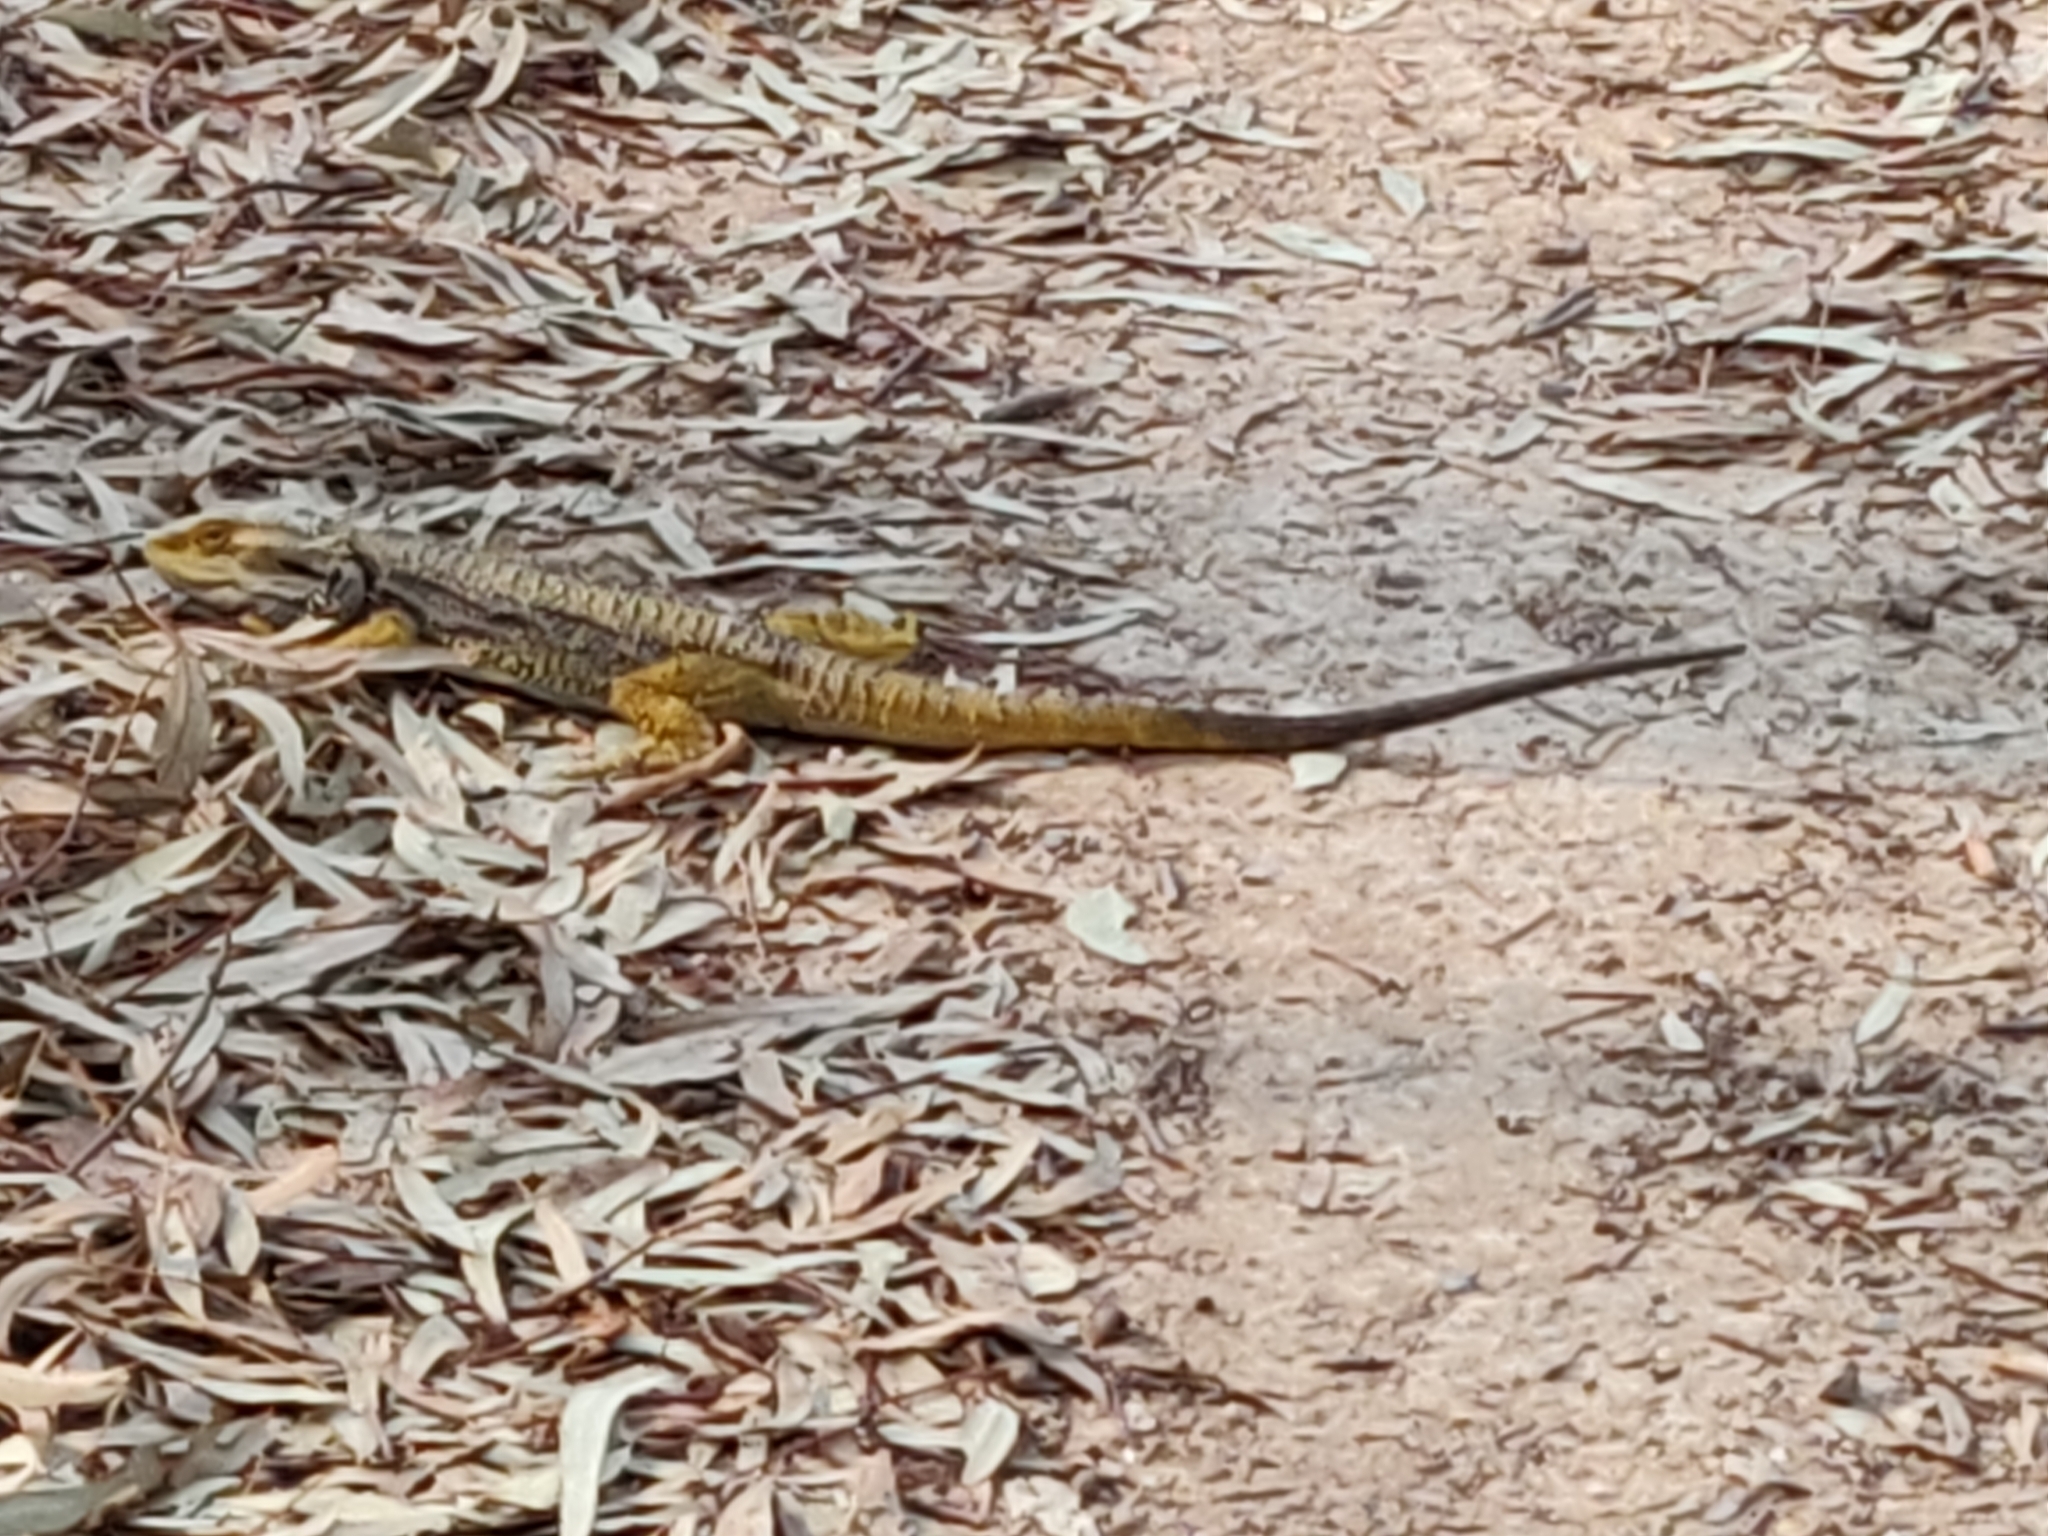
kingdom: Animalia
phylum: Chordata
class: Squamata
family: Agamidae
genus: Pogona
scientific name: Pogona barbata
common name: Bearded dragon
